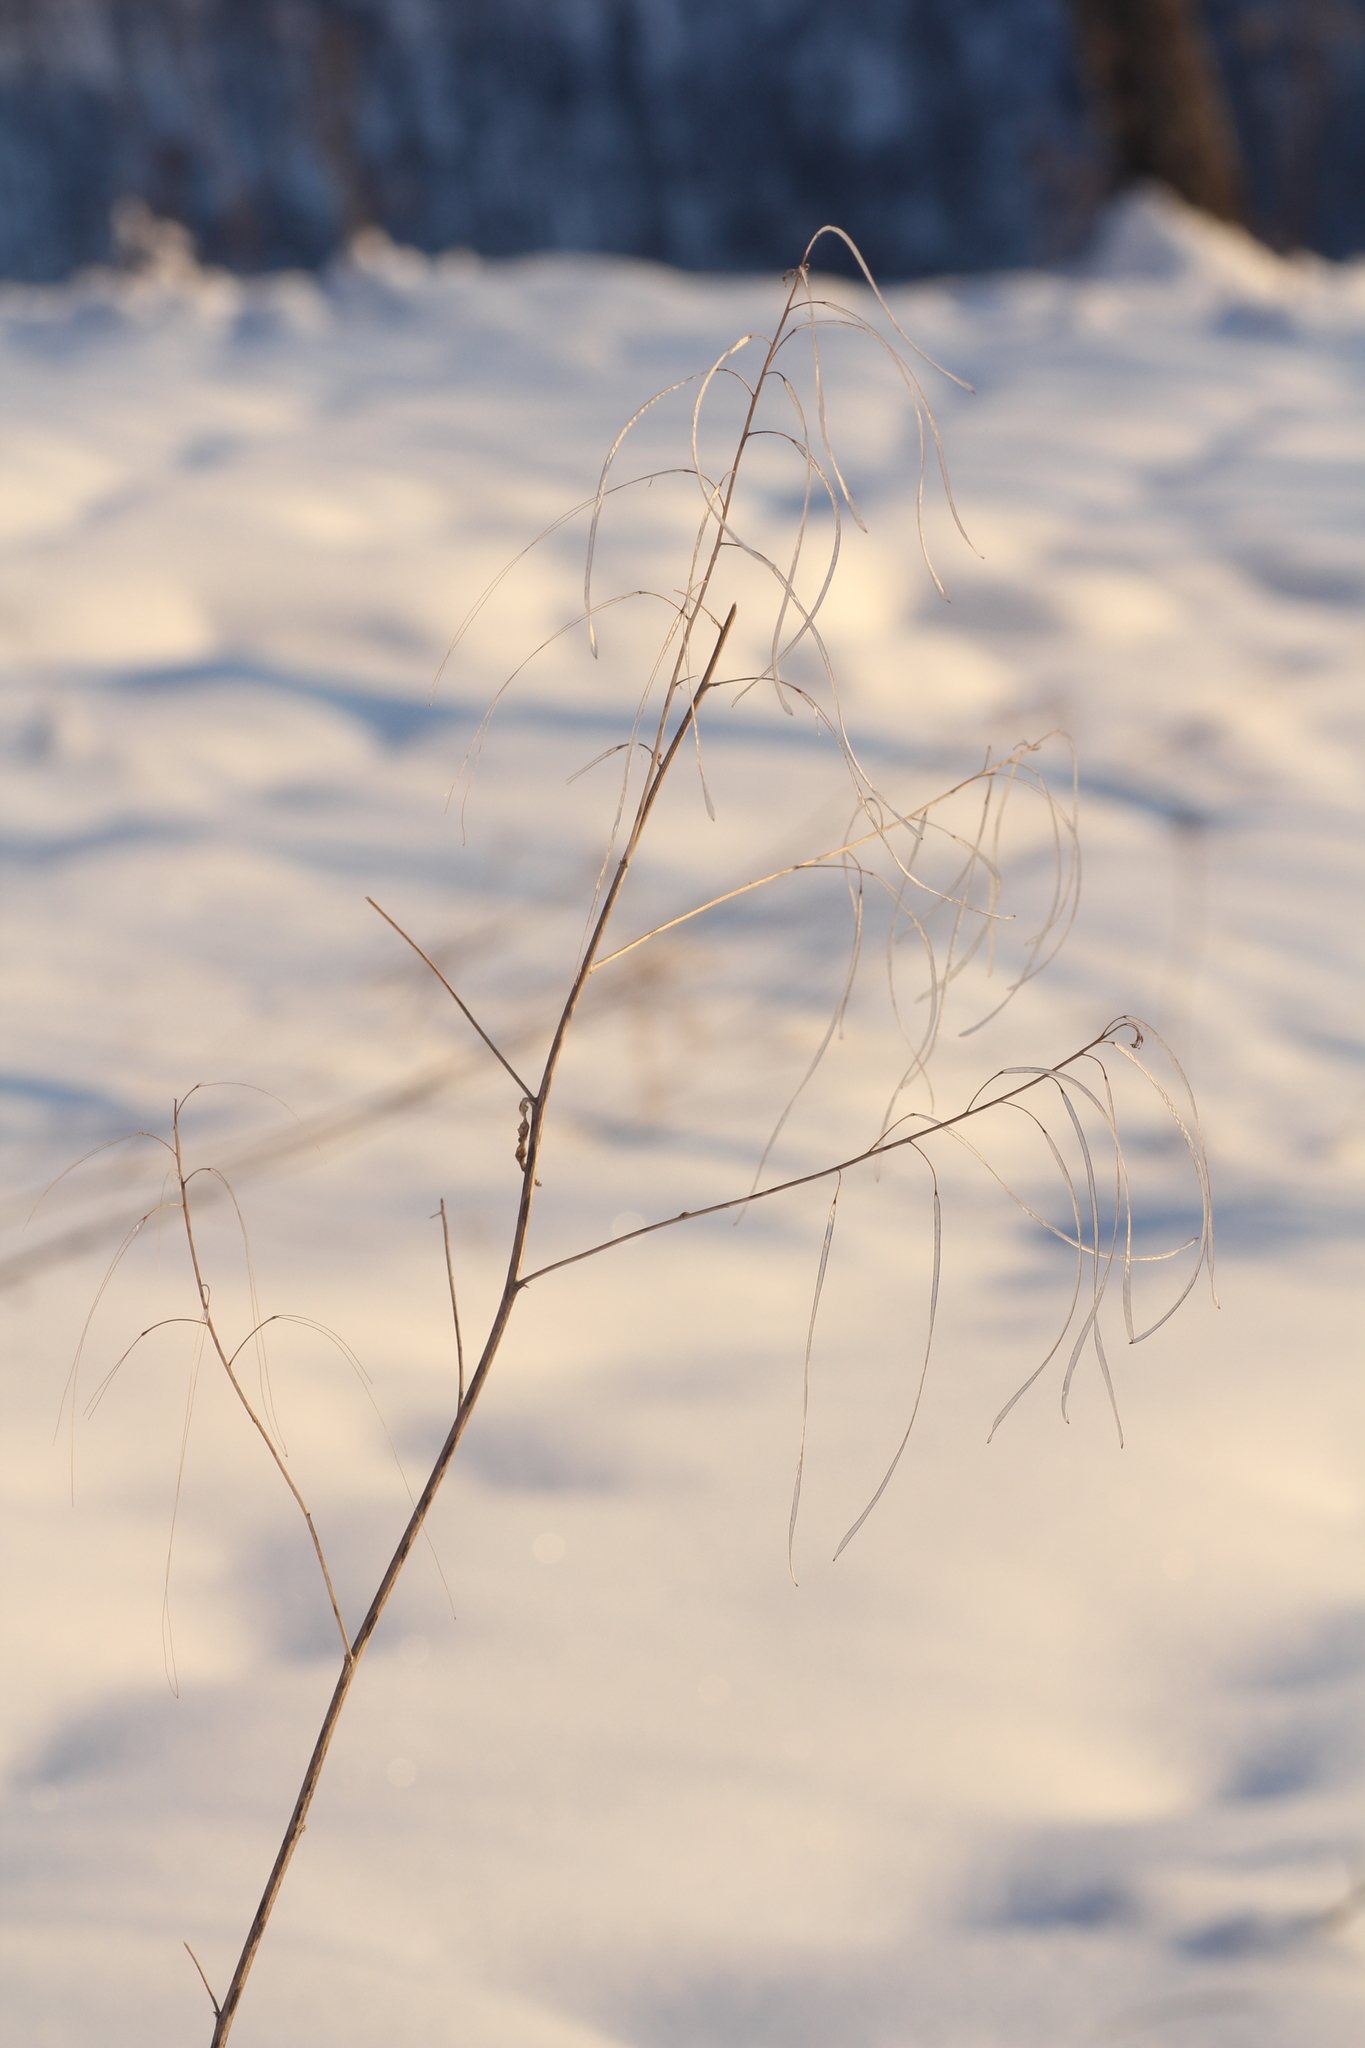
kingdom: Plantae
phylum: Tracheophyta
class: Magnoliopsida
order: Brassicales
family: Brassicaceae
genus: Catolobus
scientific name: Catolobus pendulus
